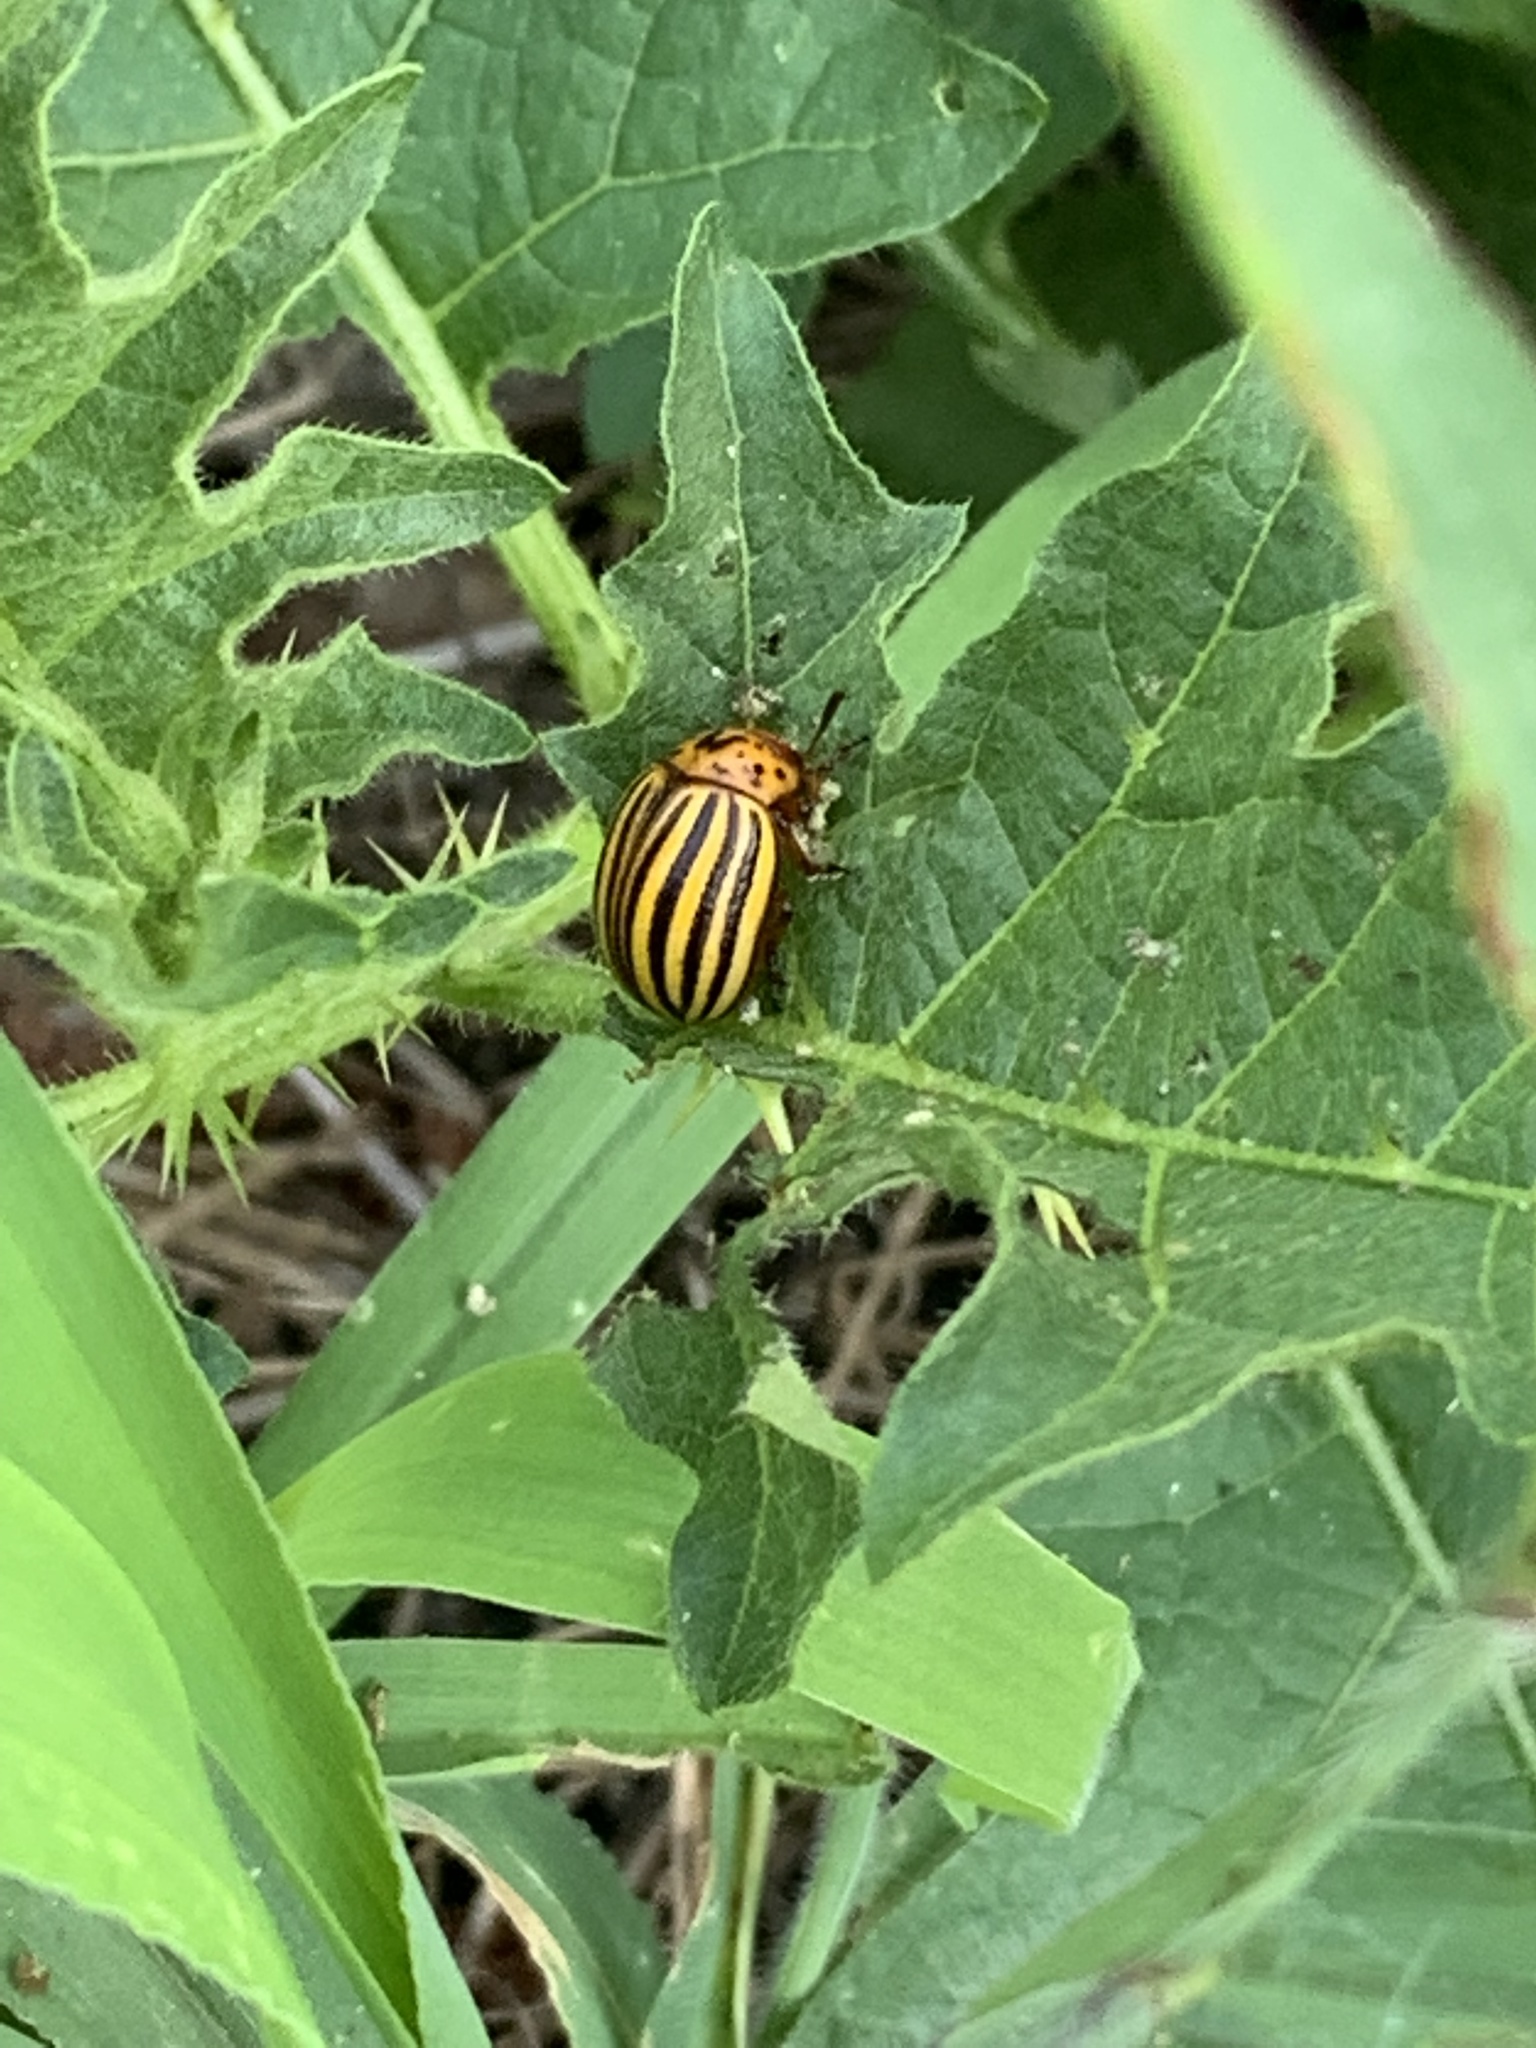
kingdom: Animalia
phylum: Arthropoda
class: Insecta
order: Coleoptera
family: Chrysomelidae
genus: Leptinotarsa
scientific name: Leptinotarsa decemlineata
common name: Colorado potato beetle
